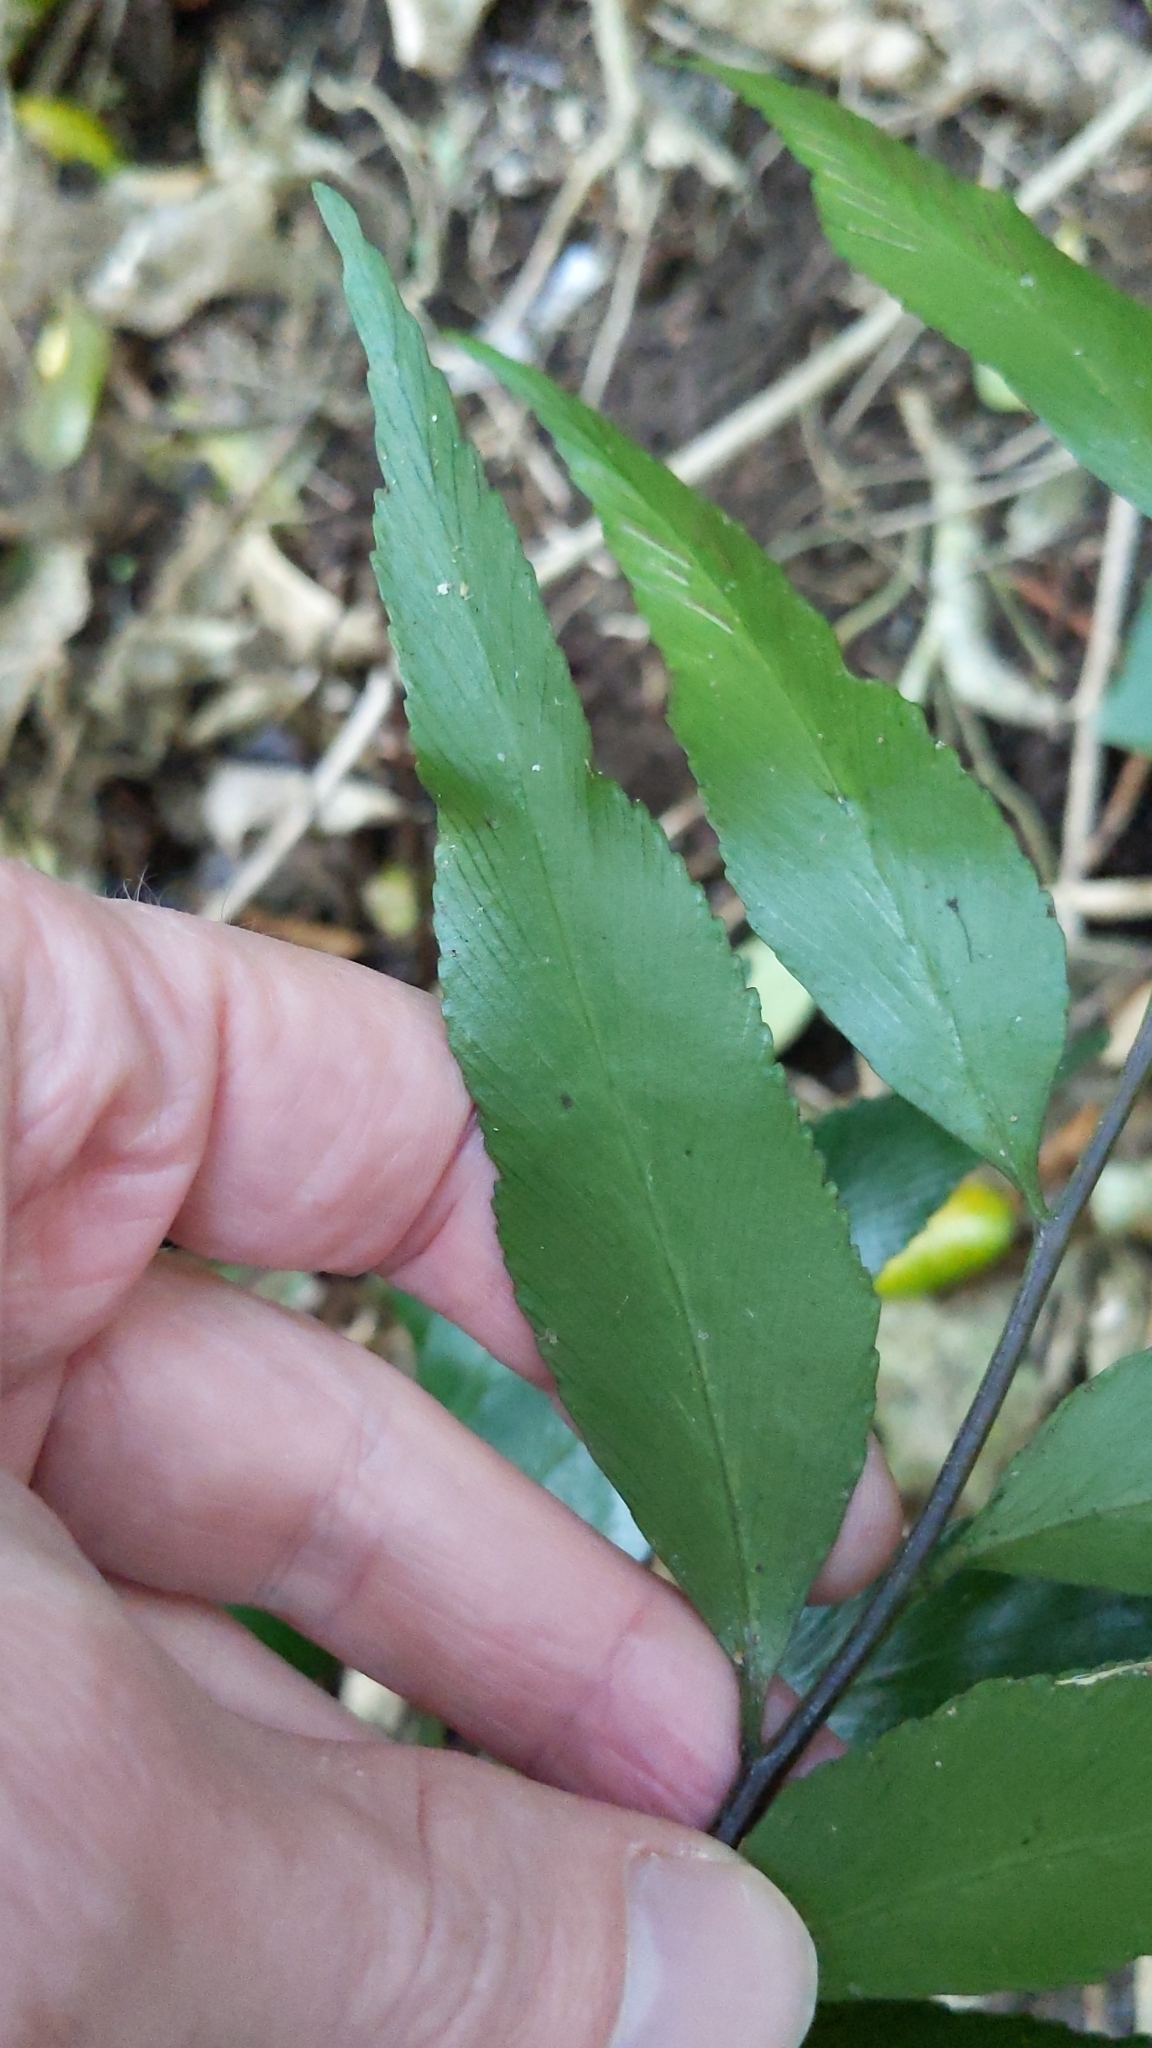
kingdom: Plantae
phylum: Tracheophyta
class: Polypodiopsida
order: Polypodiales
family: Aspleniaceae
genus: Asplenium
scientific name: Asplenium oblongifolium
